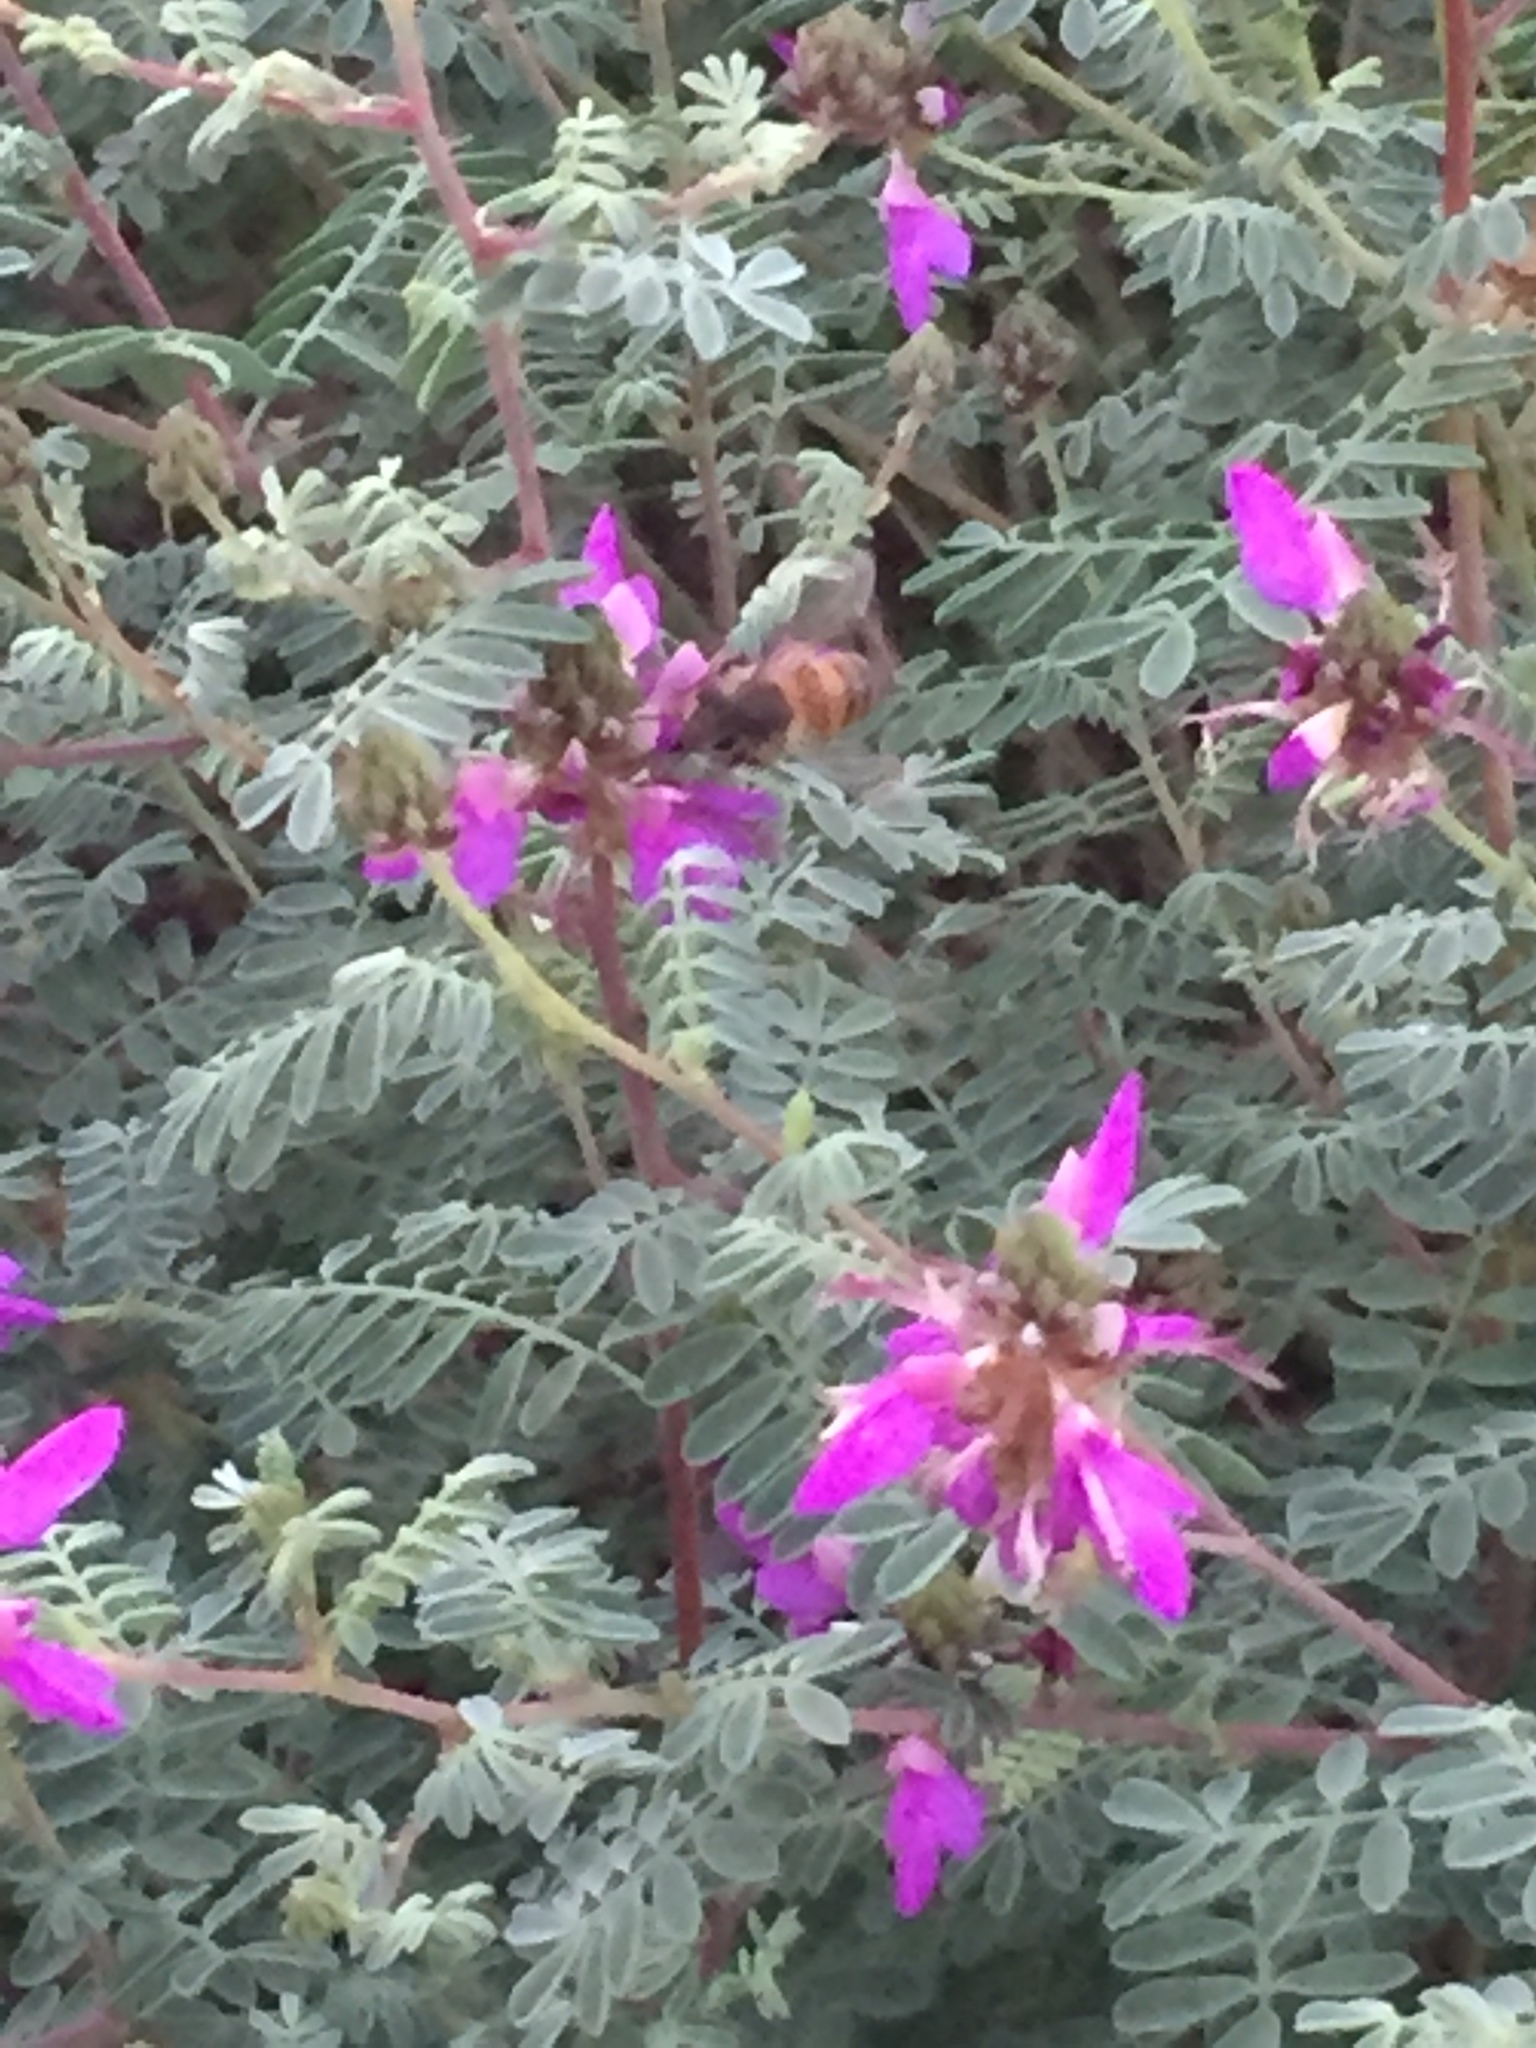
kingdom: Animalia
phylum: Arthropoda
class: Insecta
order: Hymenoptera
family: Apidae
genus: Apis
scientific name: Apis mellifera
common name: Honey bee
